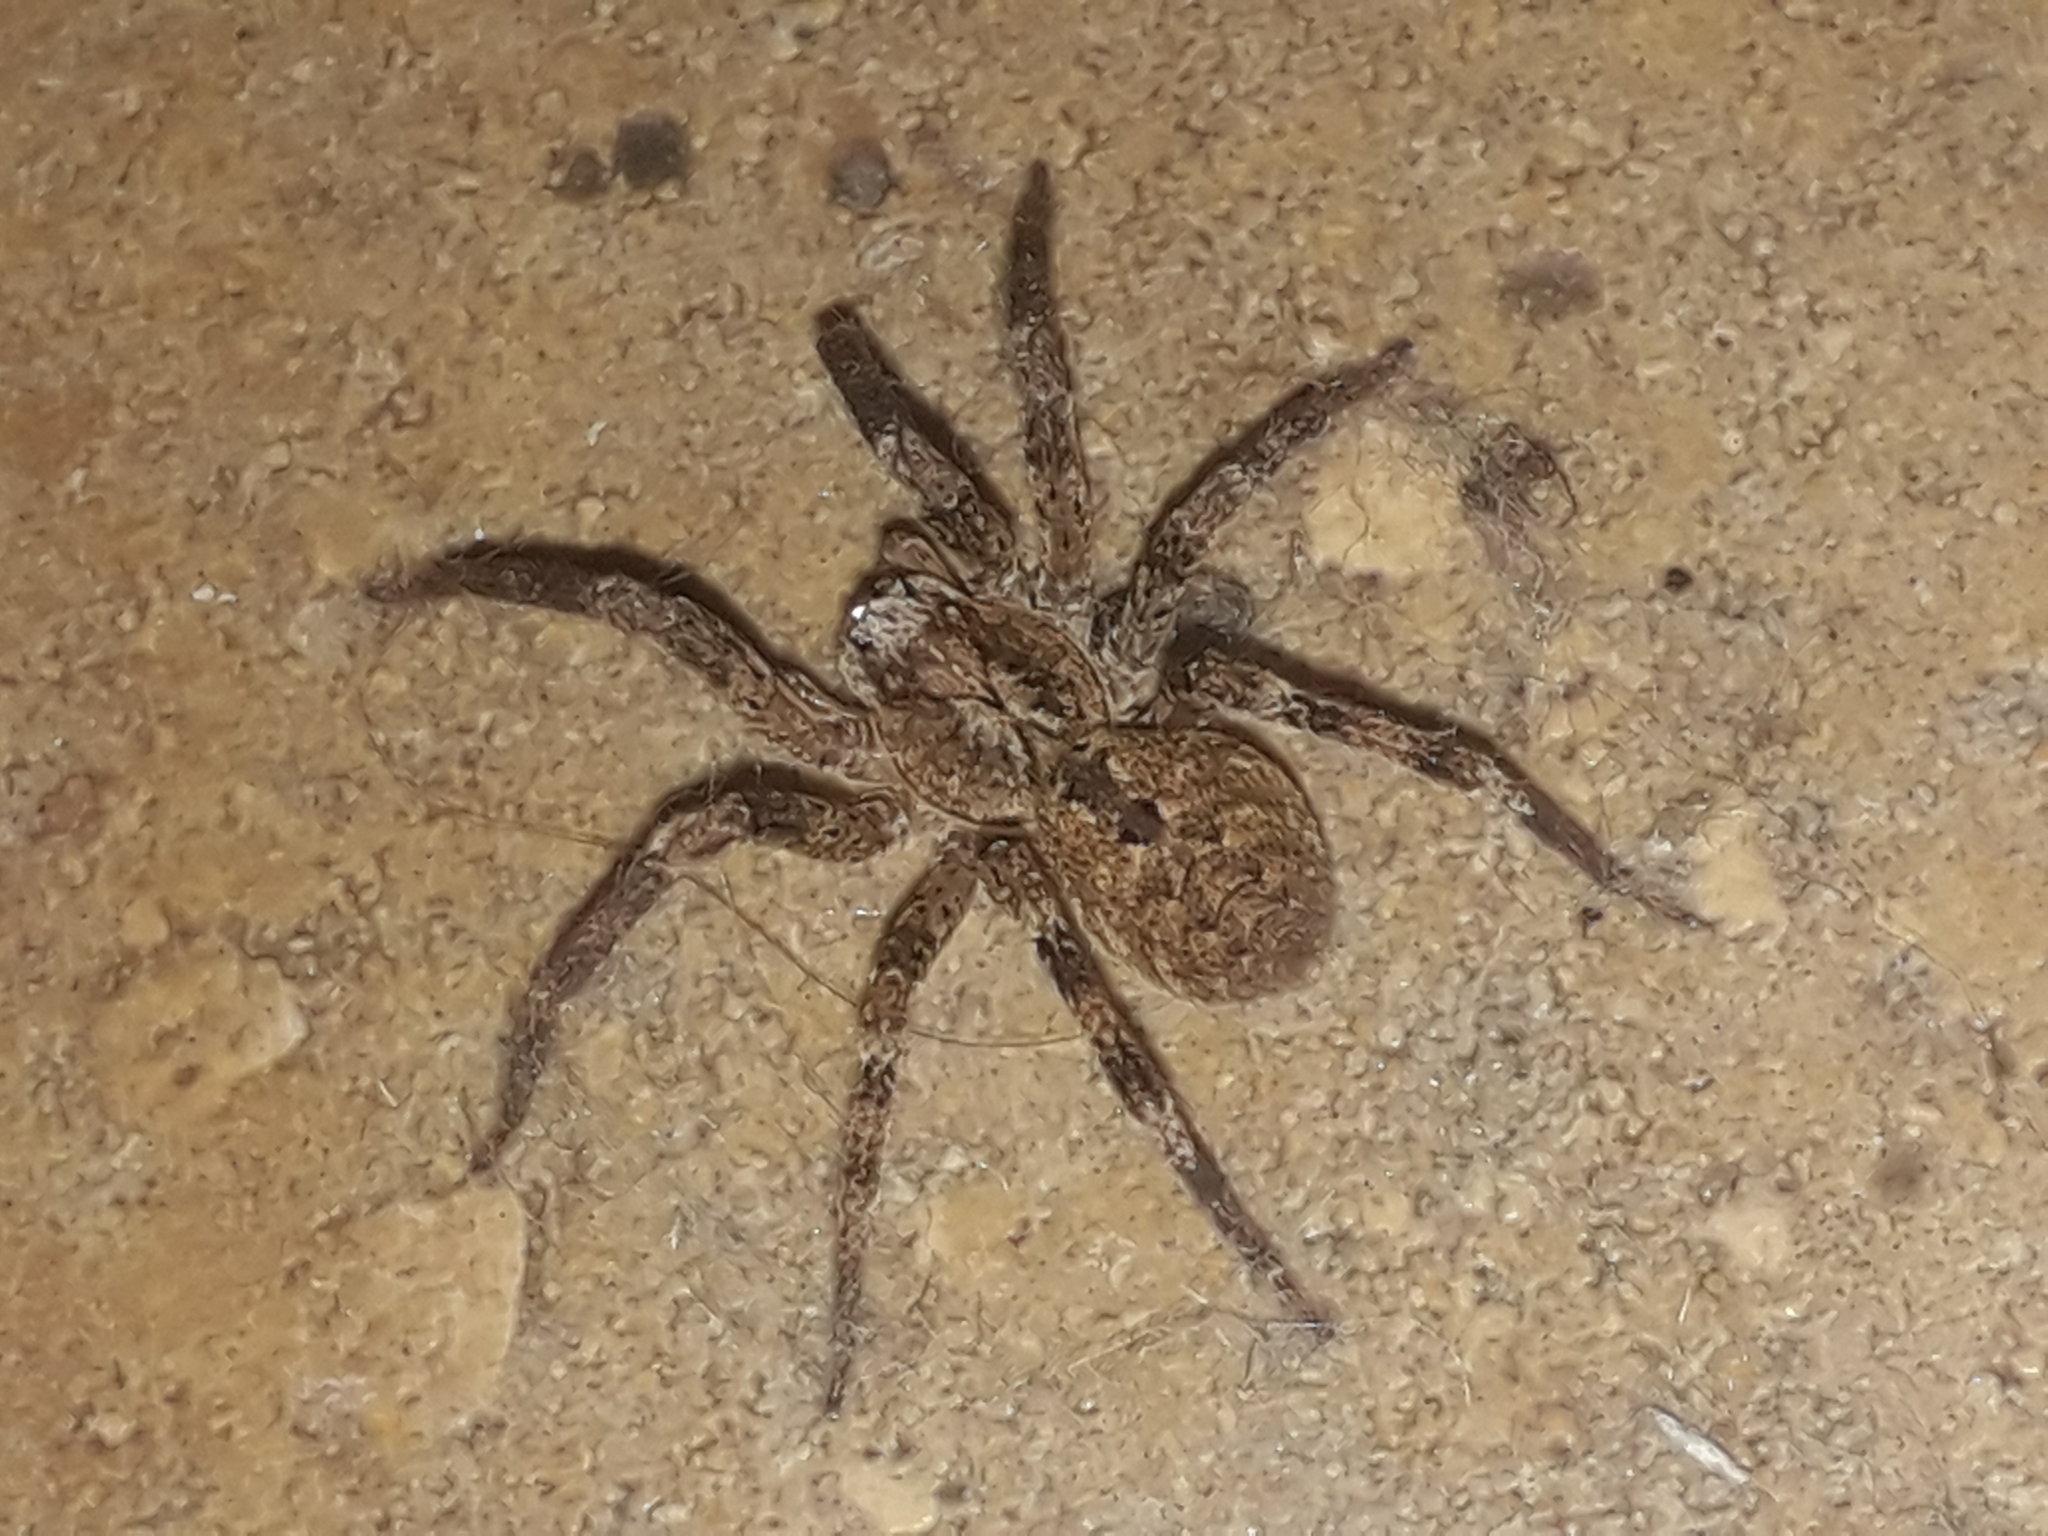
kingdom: Animalia
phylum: Arthropoda
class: Arachnida
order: Araneae
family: Zoropsidae
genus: Zoropsis
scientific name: Zoropsis spinimana
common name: Zoropsid spider
